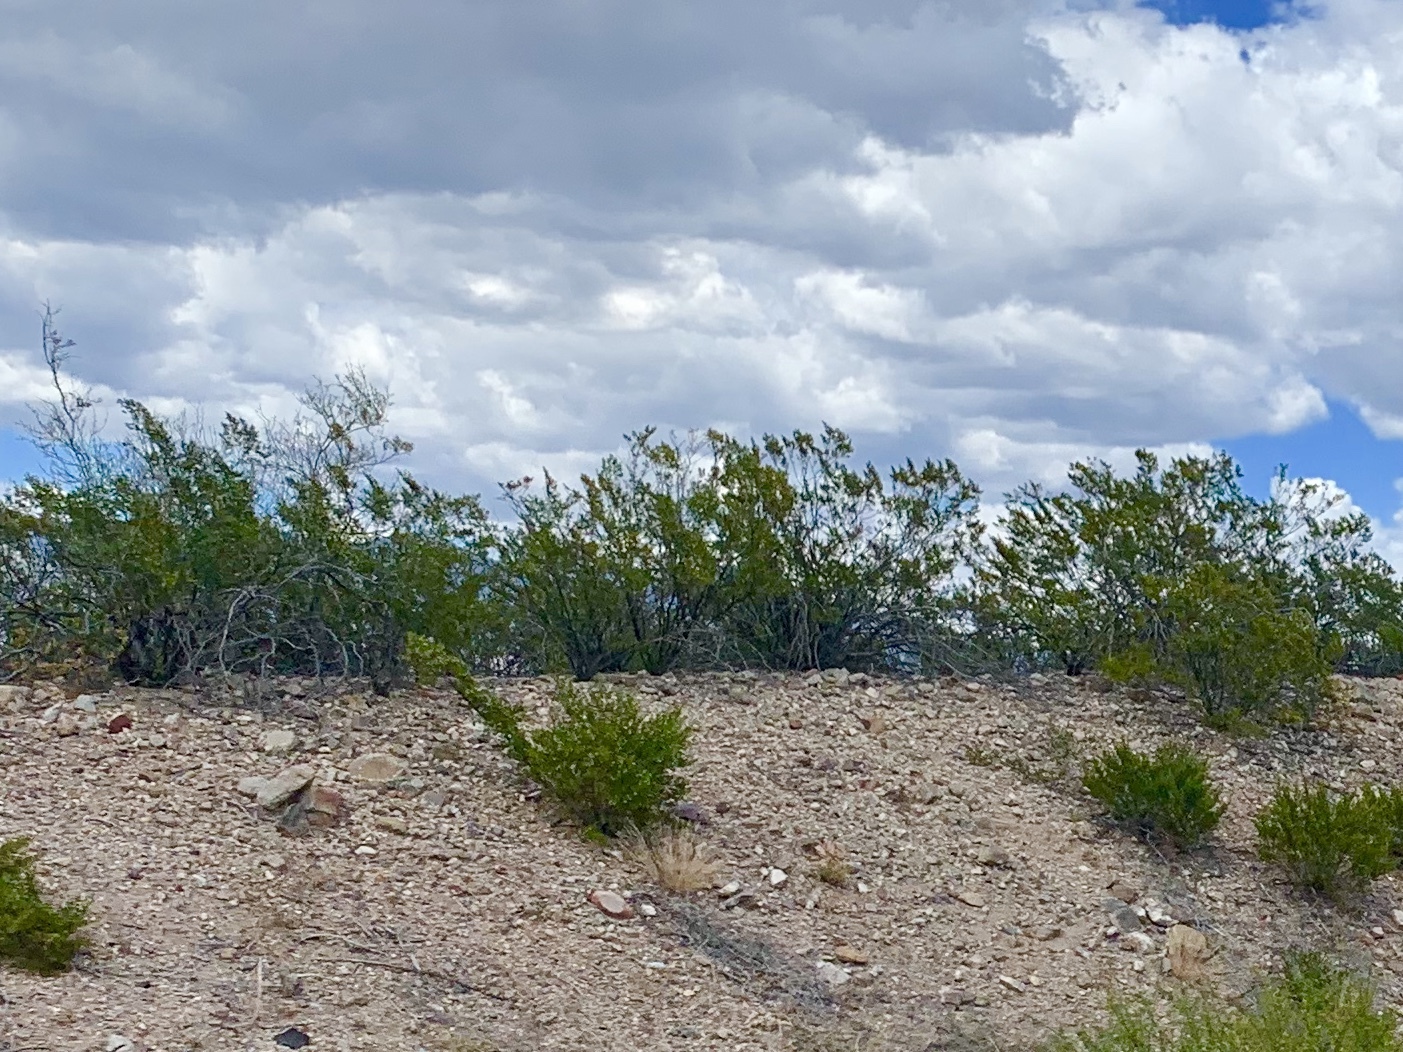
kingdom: Plantae
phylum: Tracheophyta
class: Magnoliopsida
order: Zygophyllales
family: Zygophyllaceae
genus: Larrea
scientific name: Larrea tridentata
